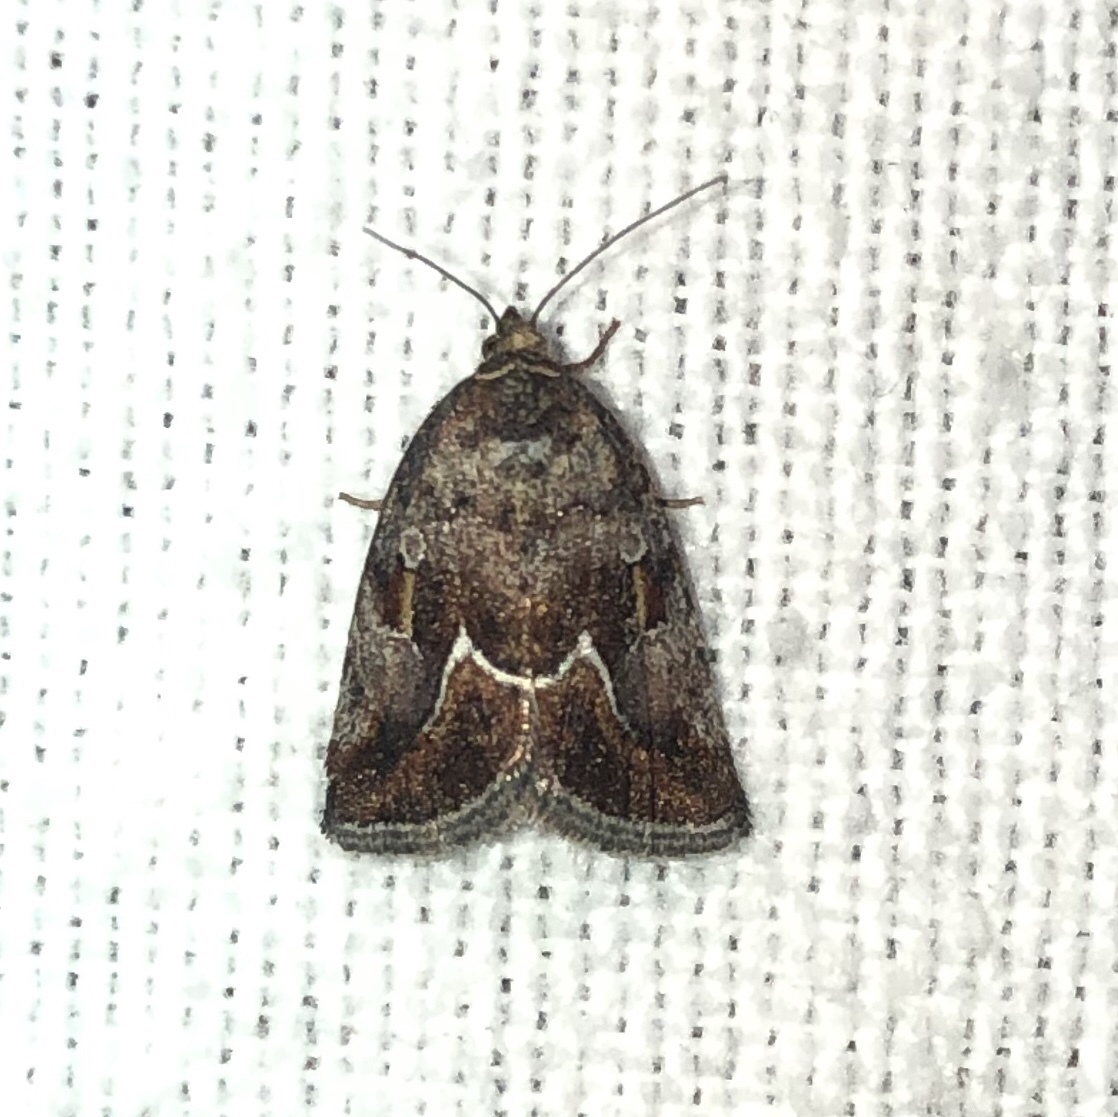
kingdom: Animalia
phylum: Arthropoda
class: Insecta
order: Lepidoptera
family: Noctuidae
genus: Deltote
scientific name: Deltote bellicula
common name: Bog glyph
